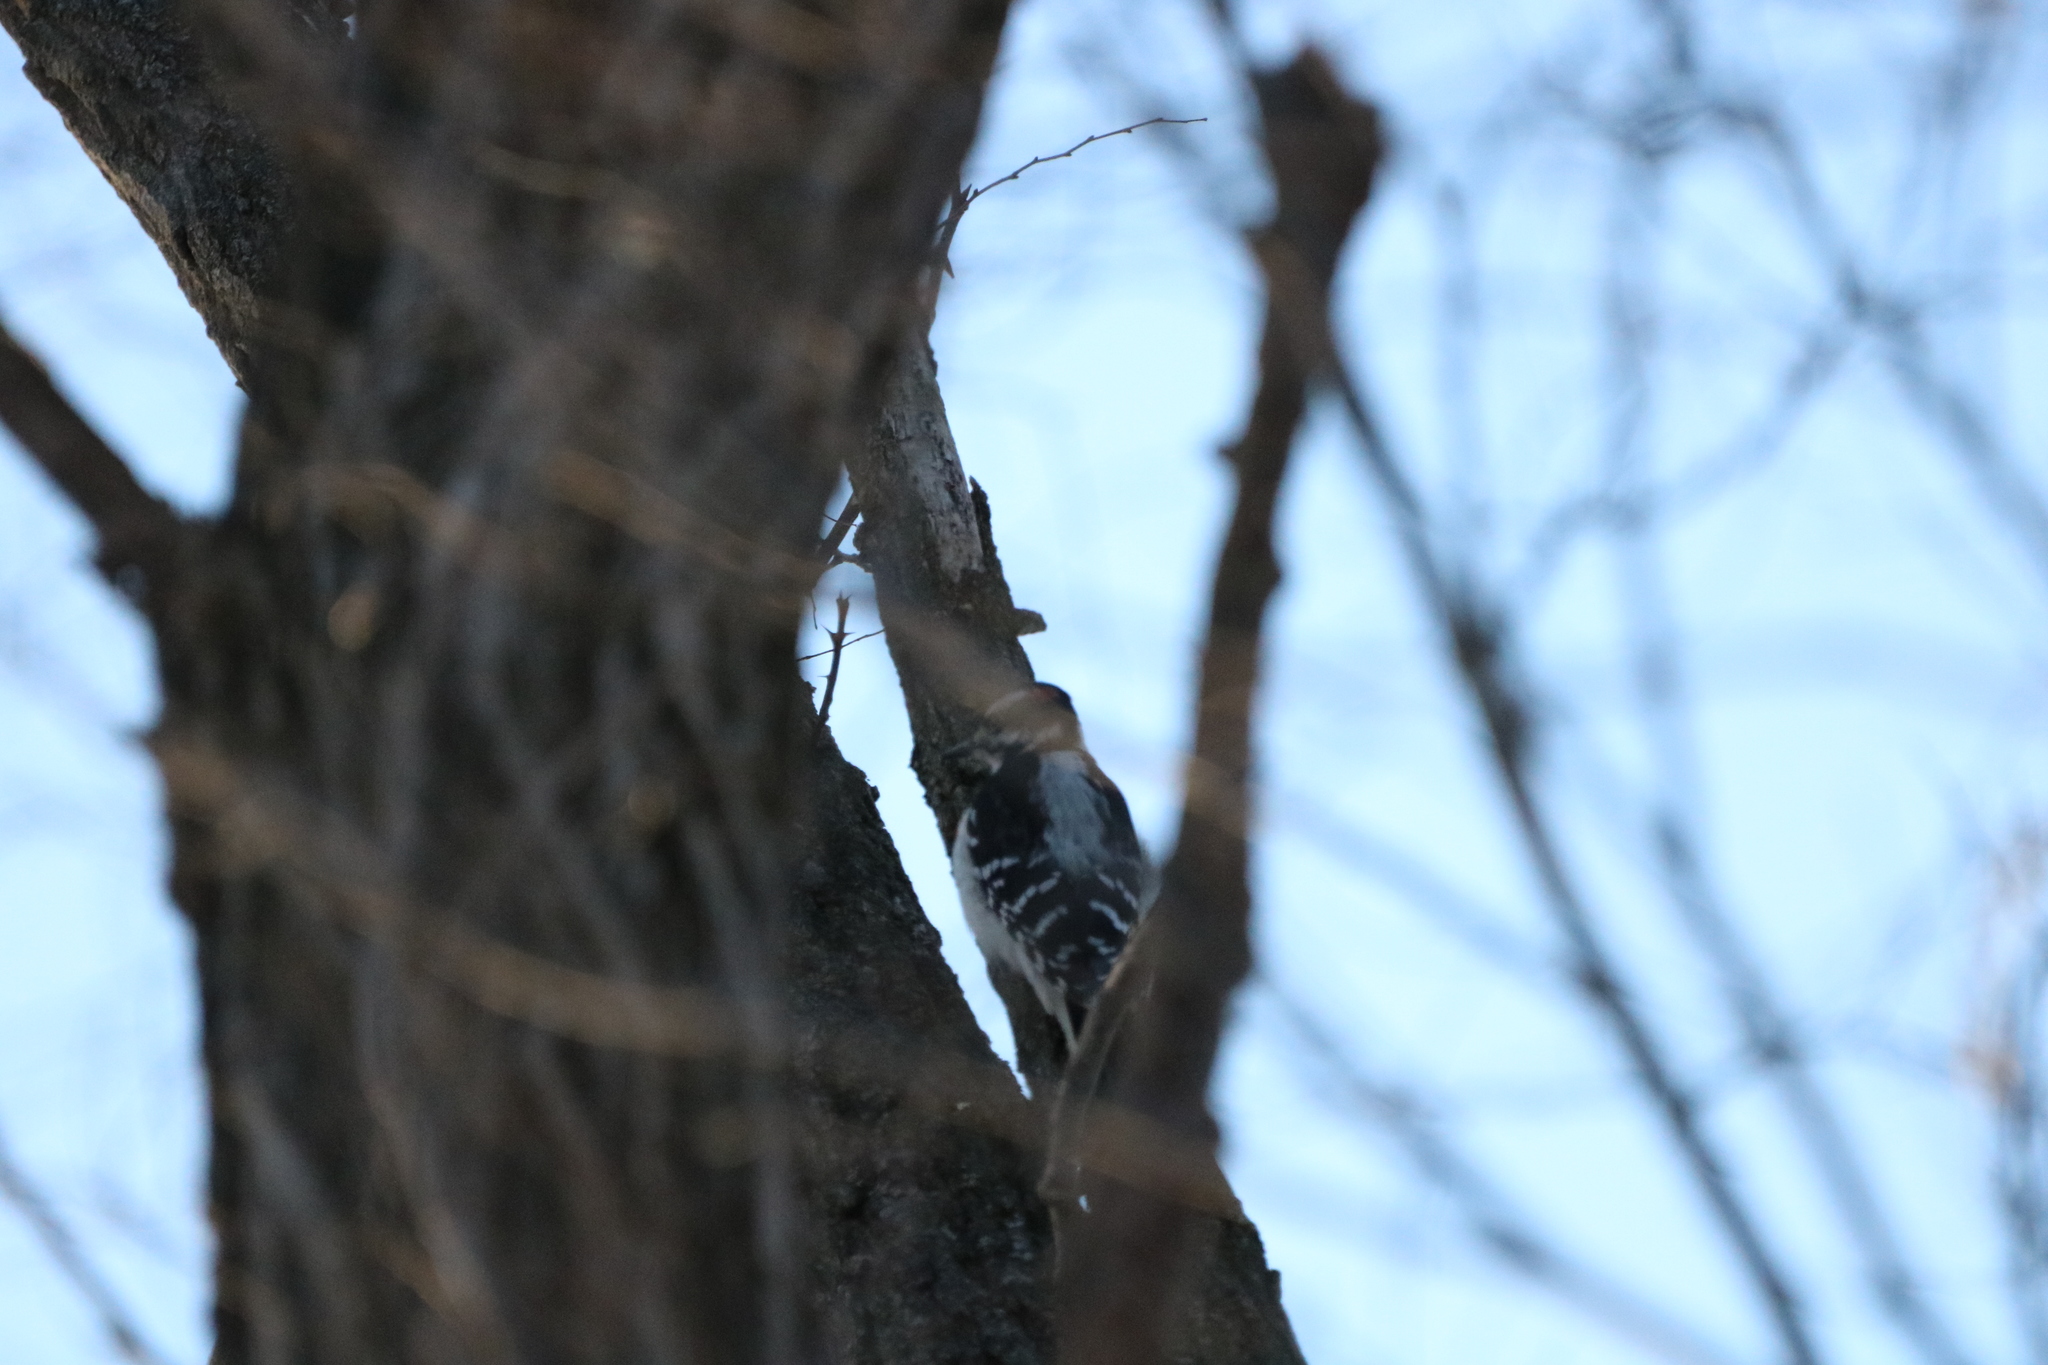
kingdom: Animalia
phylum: Chordata
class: Aves
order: Piciformes
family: Picidae
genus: Leuconotopicus
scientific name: Leuconotopicus villosus
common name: Hairy woodpecker
